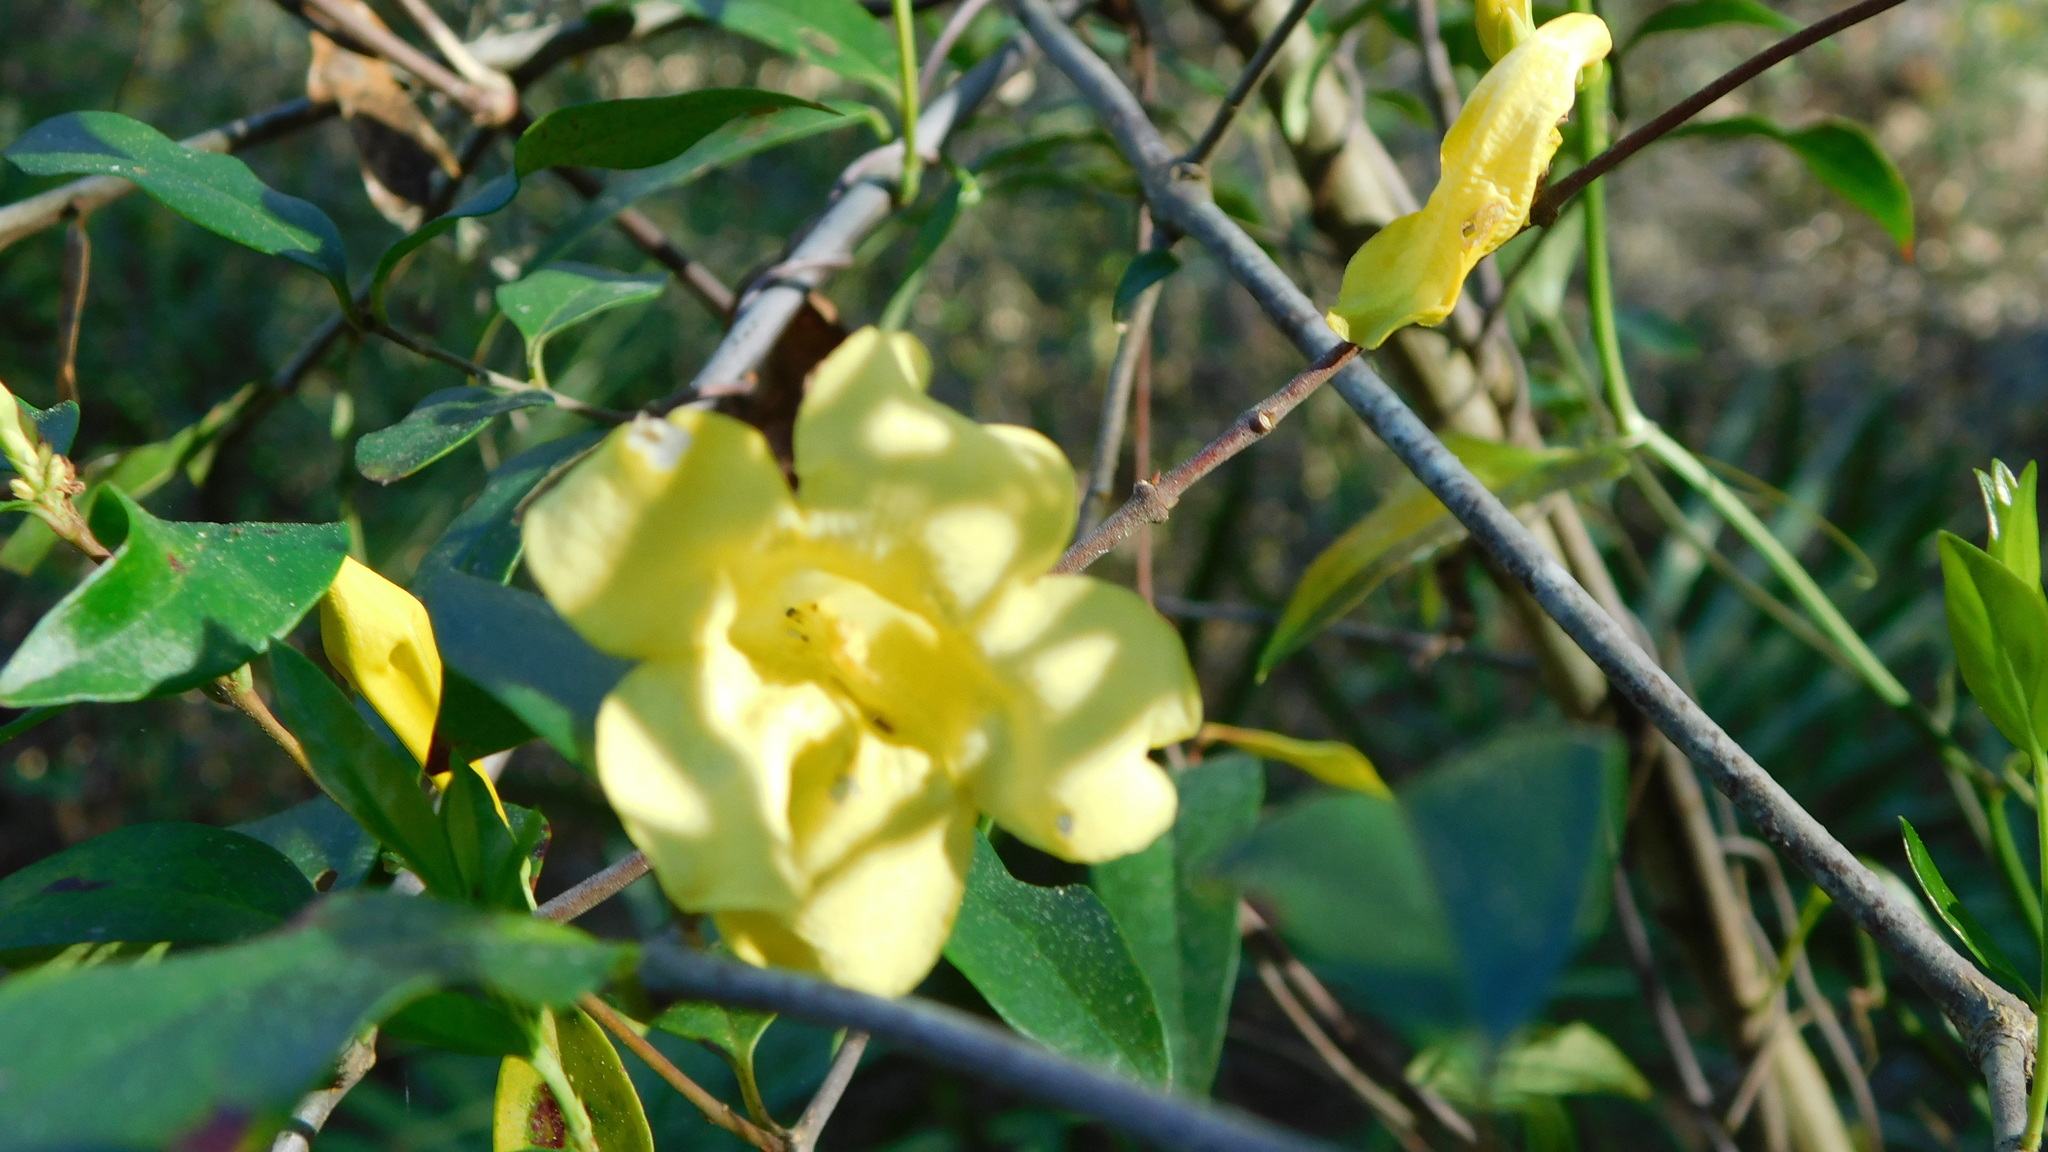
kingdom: Plantae
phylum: Tracheophyta
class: Magnoliopsida
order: Gentianales
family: Gelsemiaceae
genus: Gelsemium
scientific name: Gelsemium sempervirens
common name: Carolina-jasmine
